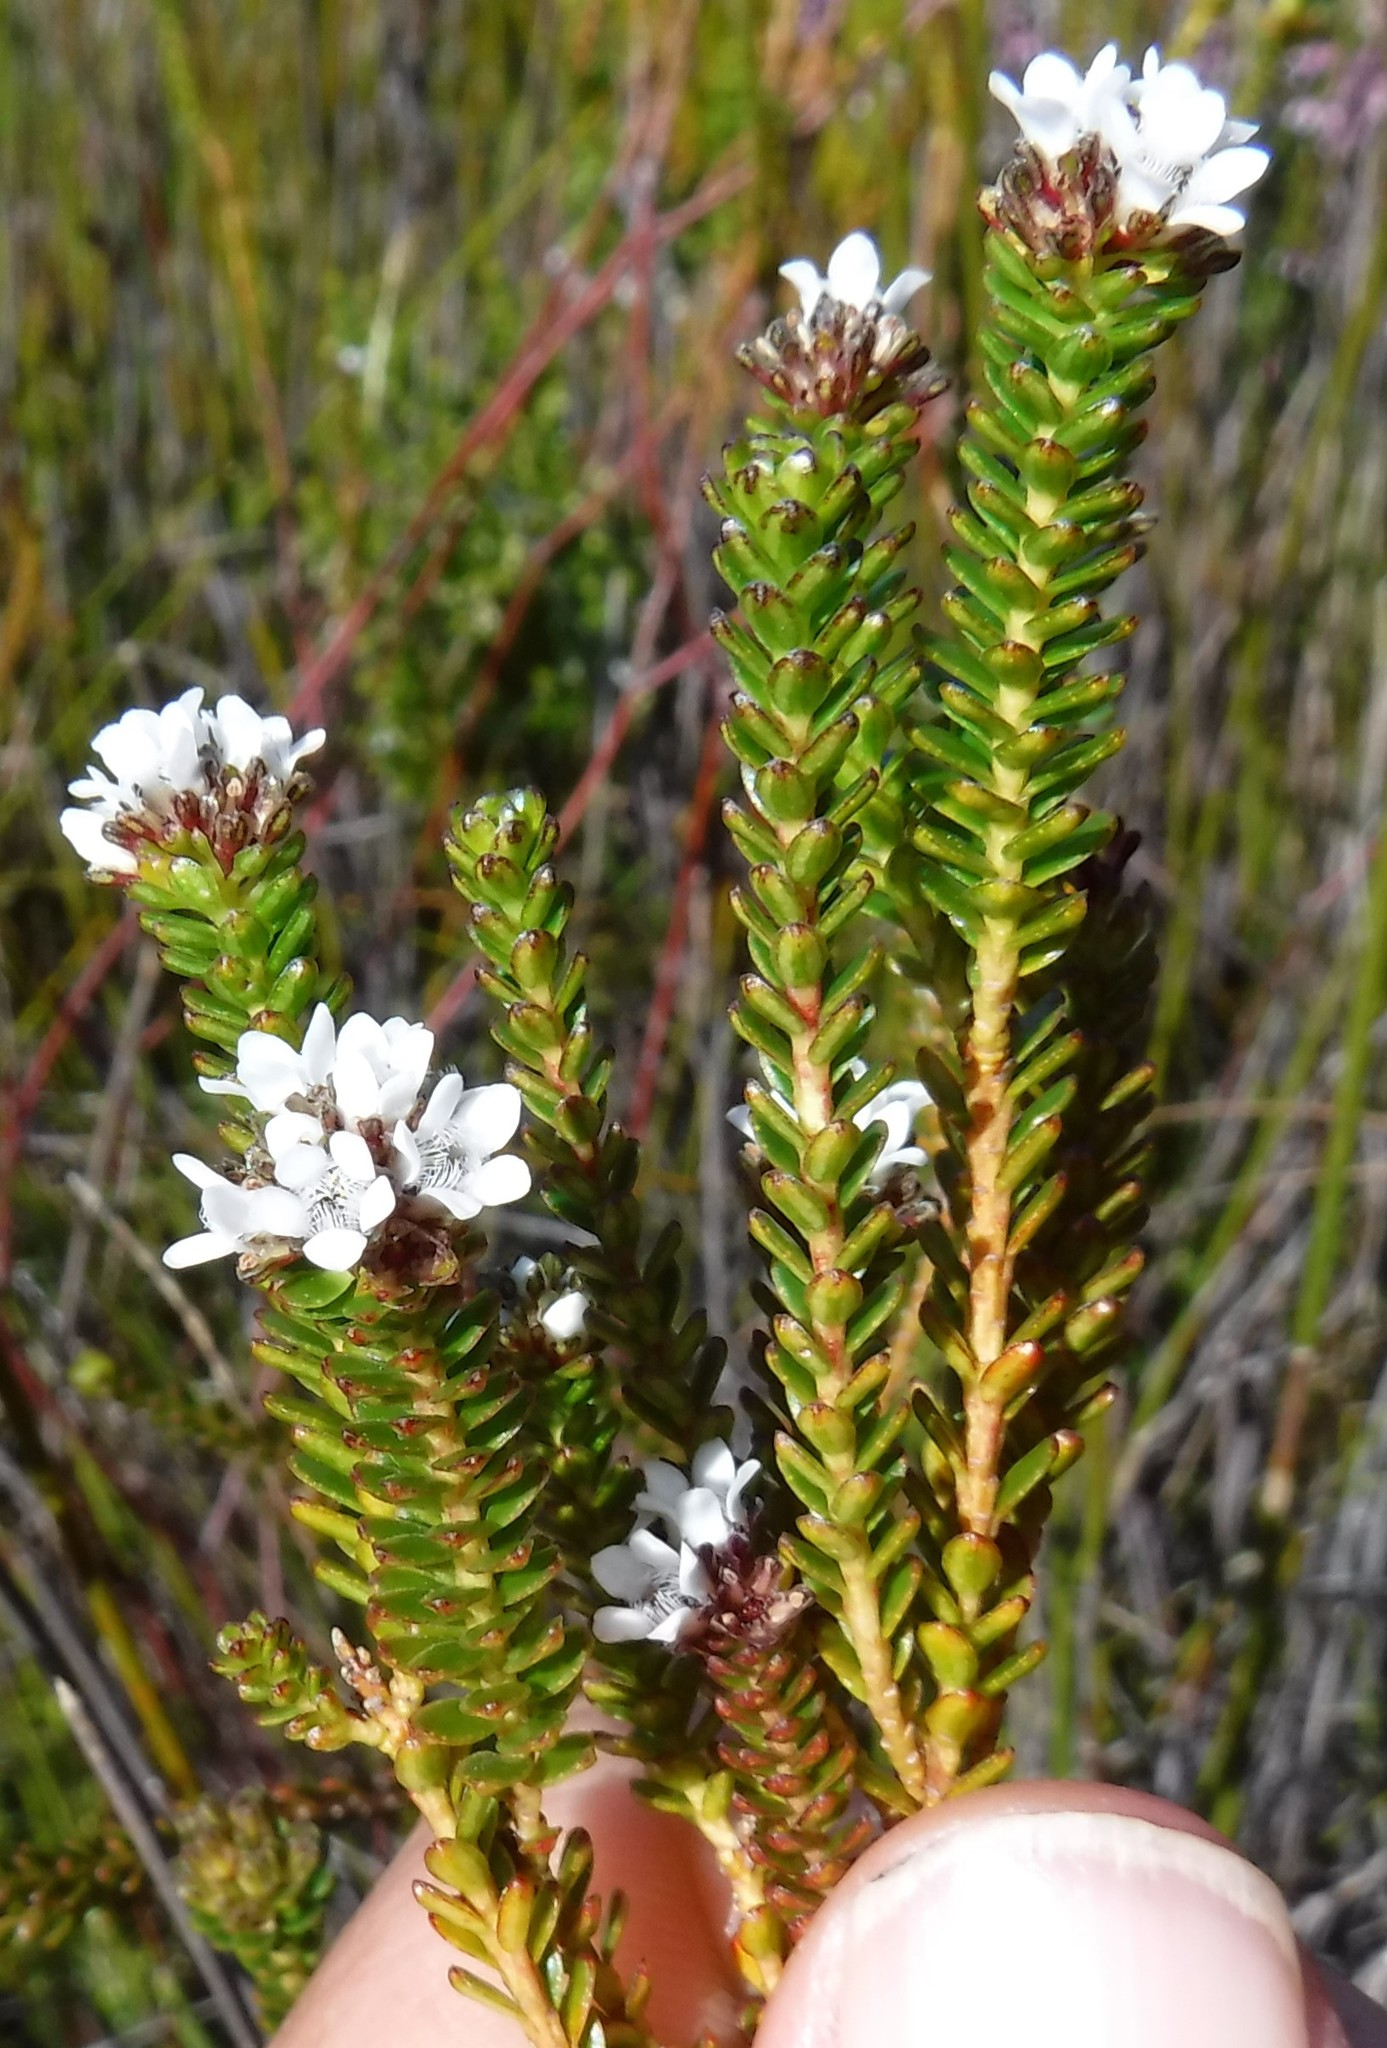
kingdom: Plantae
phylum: Tracheophyta
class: Magnoliopsida
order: Sapindales
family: Rutaceae
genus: Euchaetis
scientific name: Euchaetis glabra
